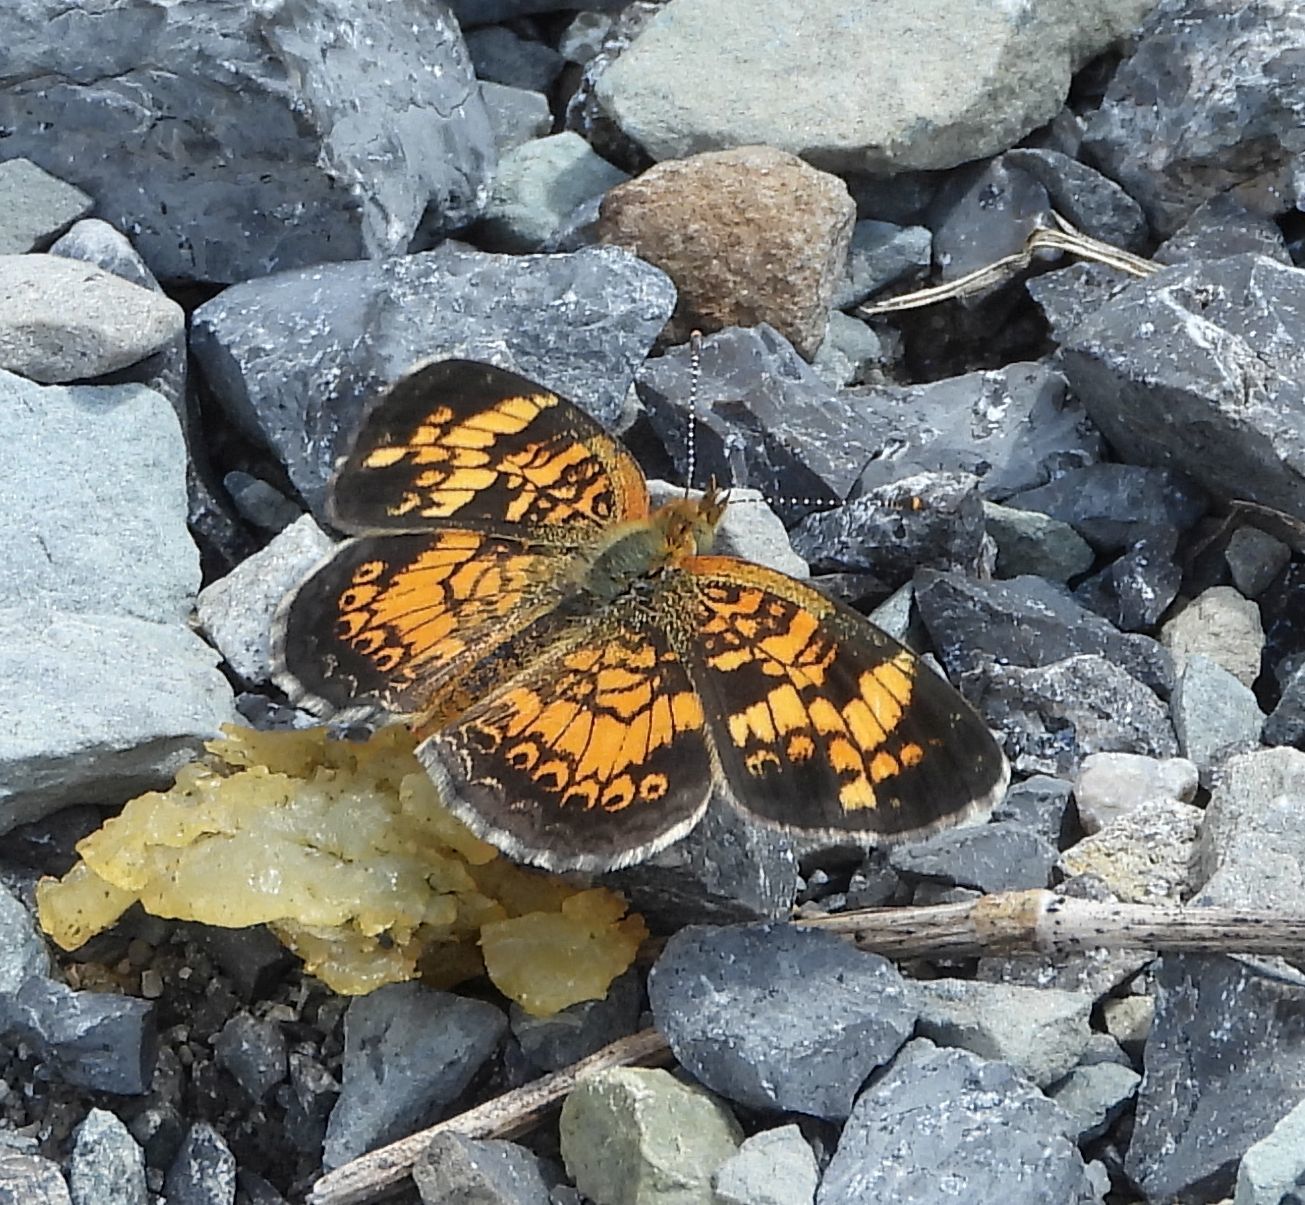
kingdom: Animalia
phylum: Arthropoda
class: Insecta
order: Lepidoptera
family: Nymphalidae
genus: Phyciodes
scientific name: Phyciodes tharos
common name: Pearl crescent
